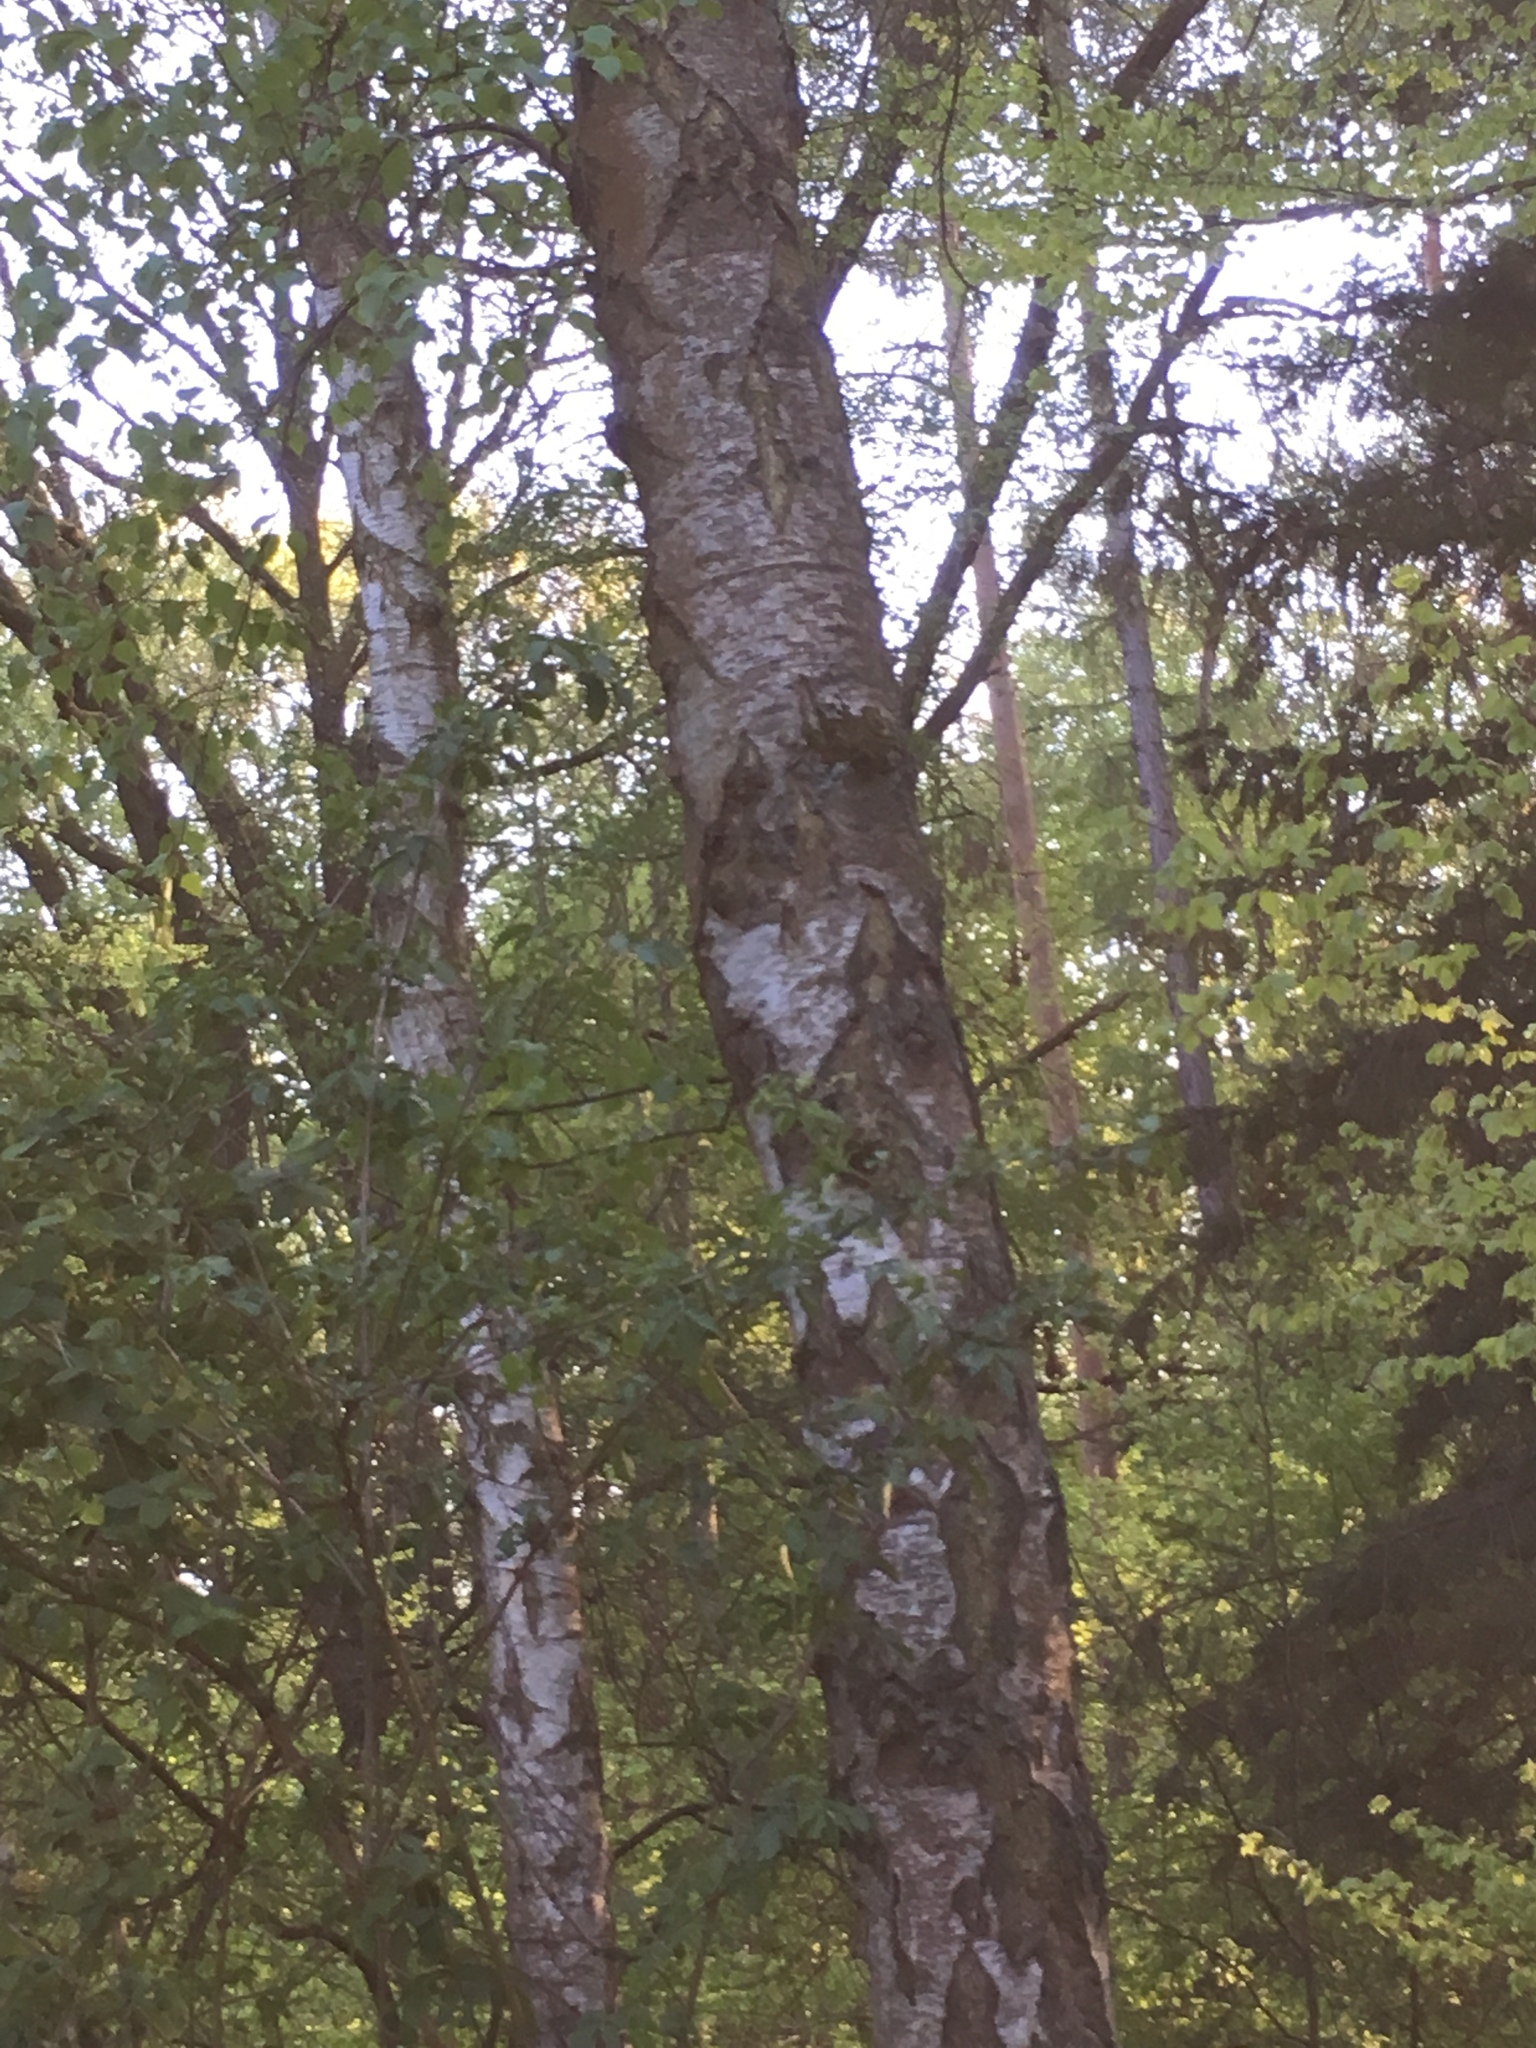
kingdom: Plantae
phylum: Tracheophyta
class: Magnoliopsida
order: Fagales
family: Betulaceae
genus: Betula
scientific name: Betula pendula
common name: Silver birch
